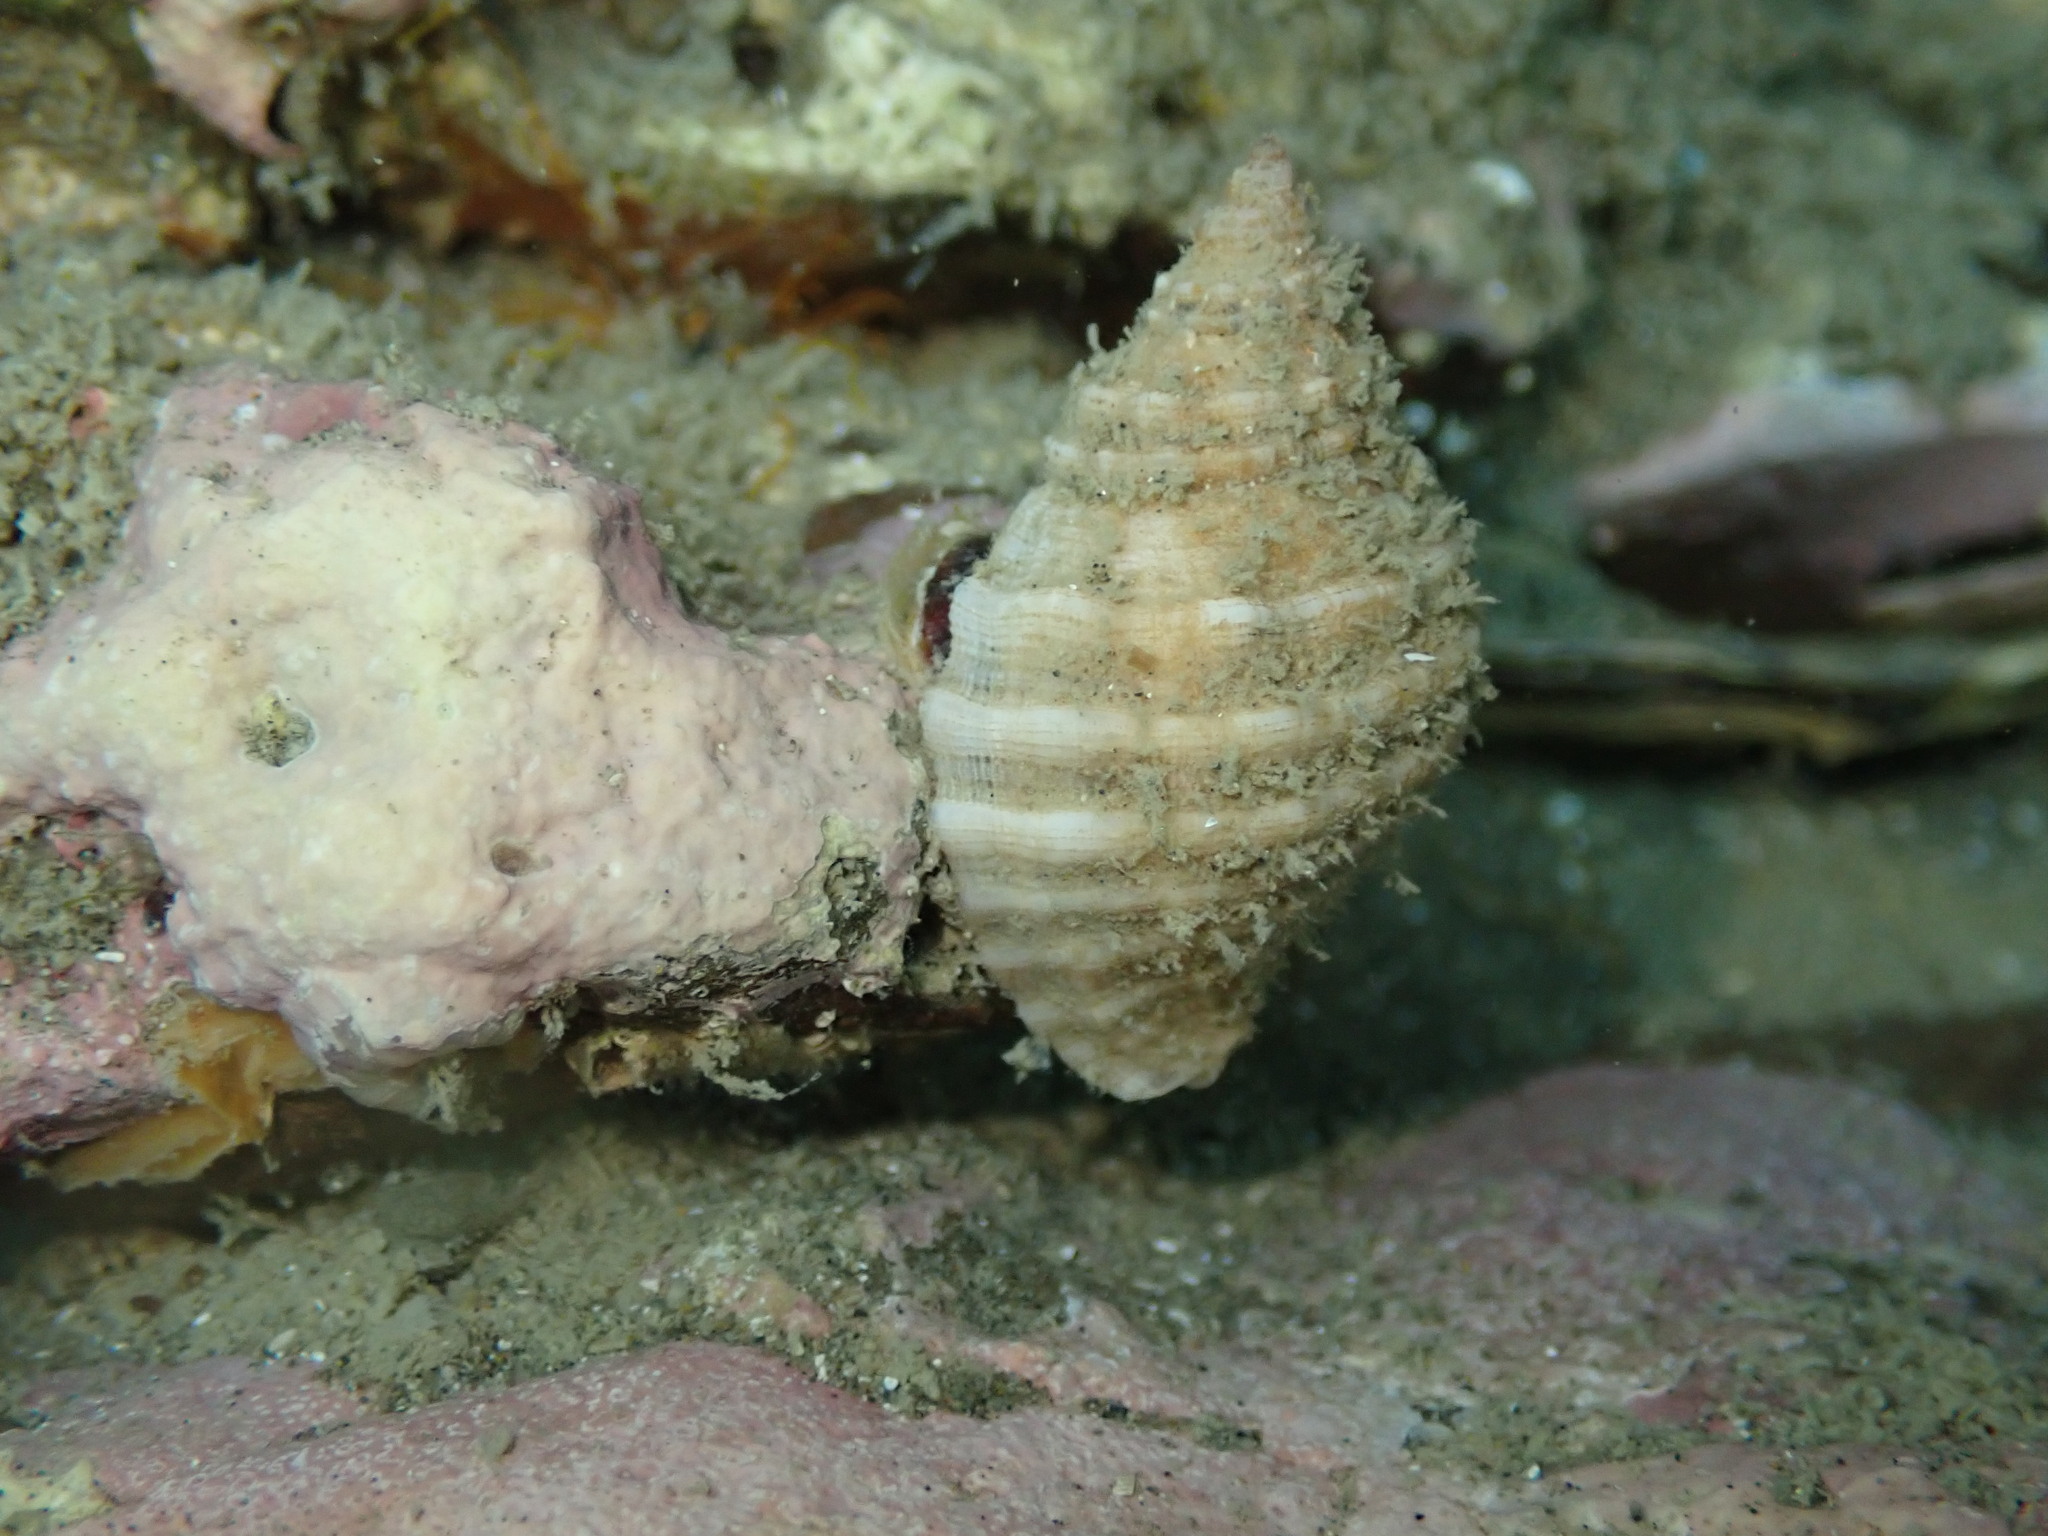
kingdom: Animalia
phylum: Mollusca
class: Gastropoda
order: Neogastropoda
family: Muricidae
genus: Dicathais
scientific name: Dicathais orbita
